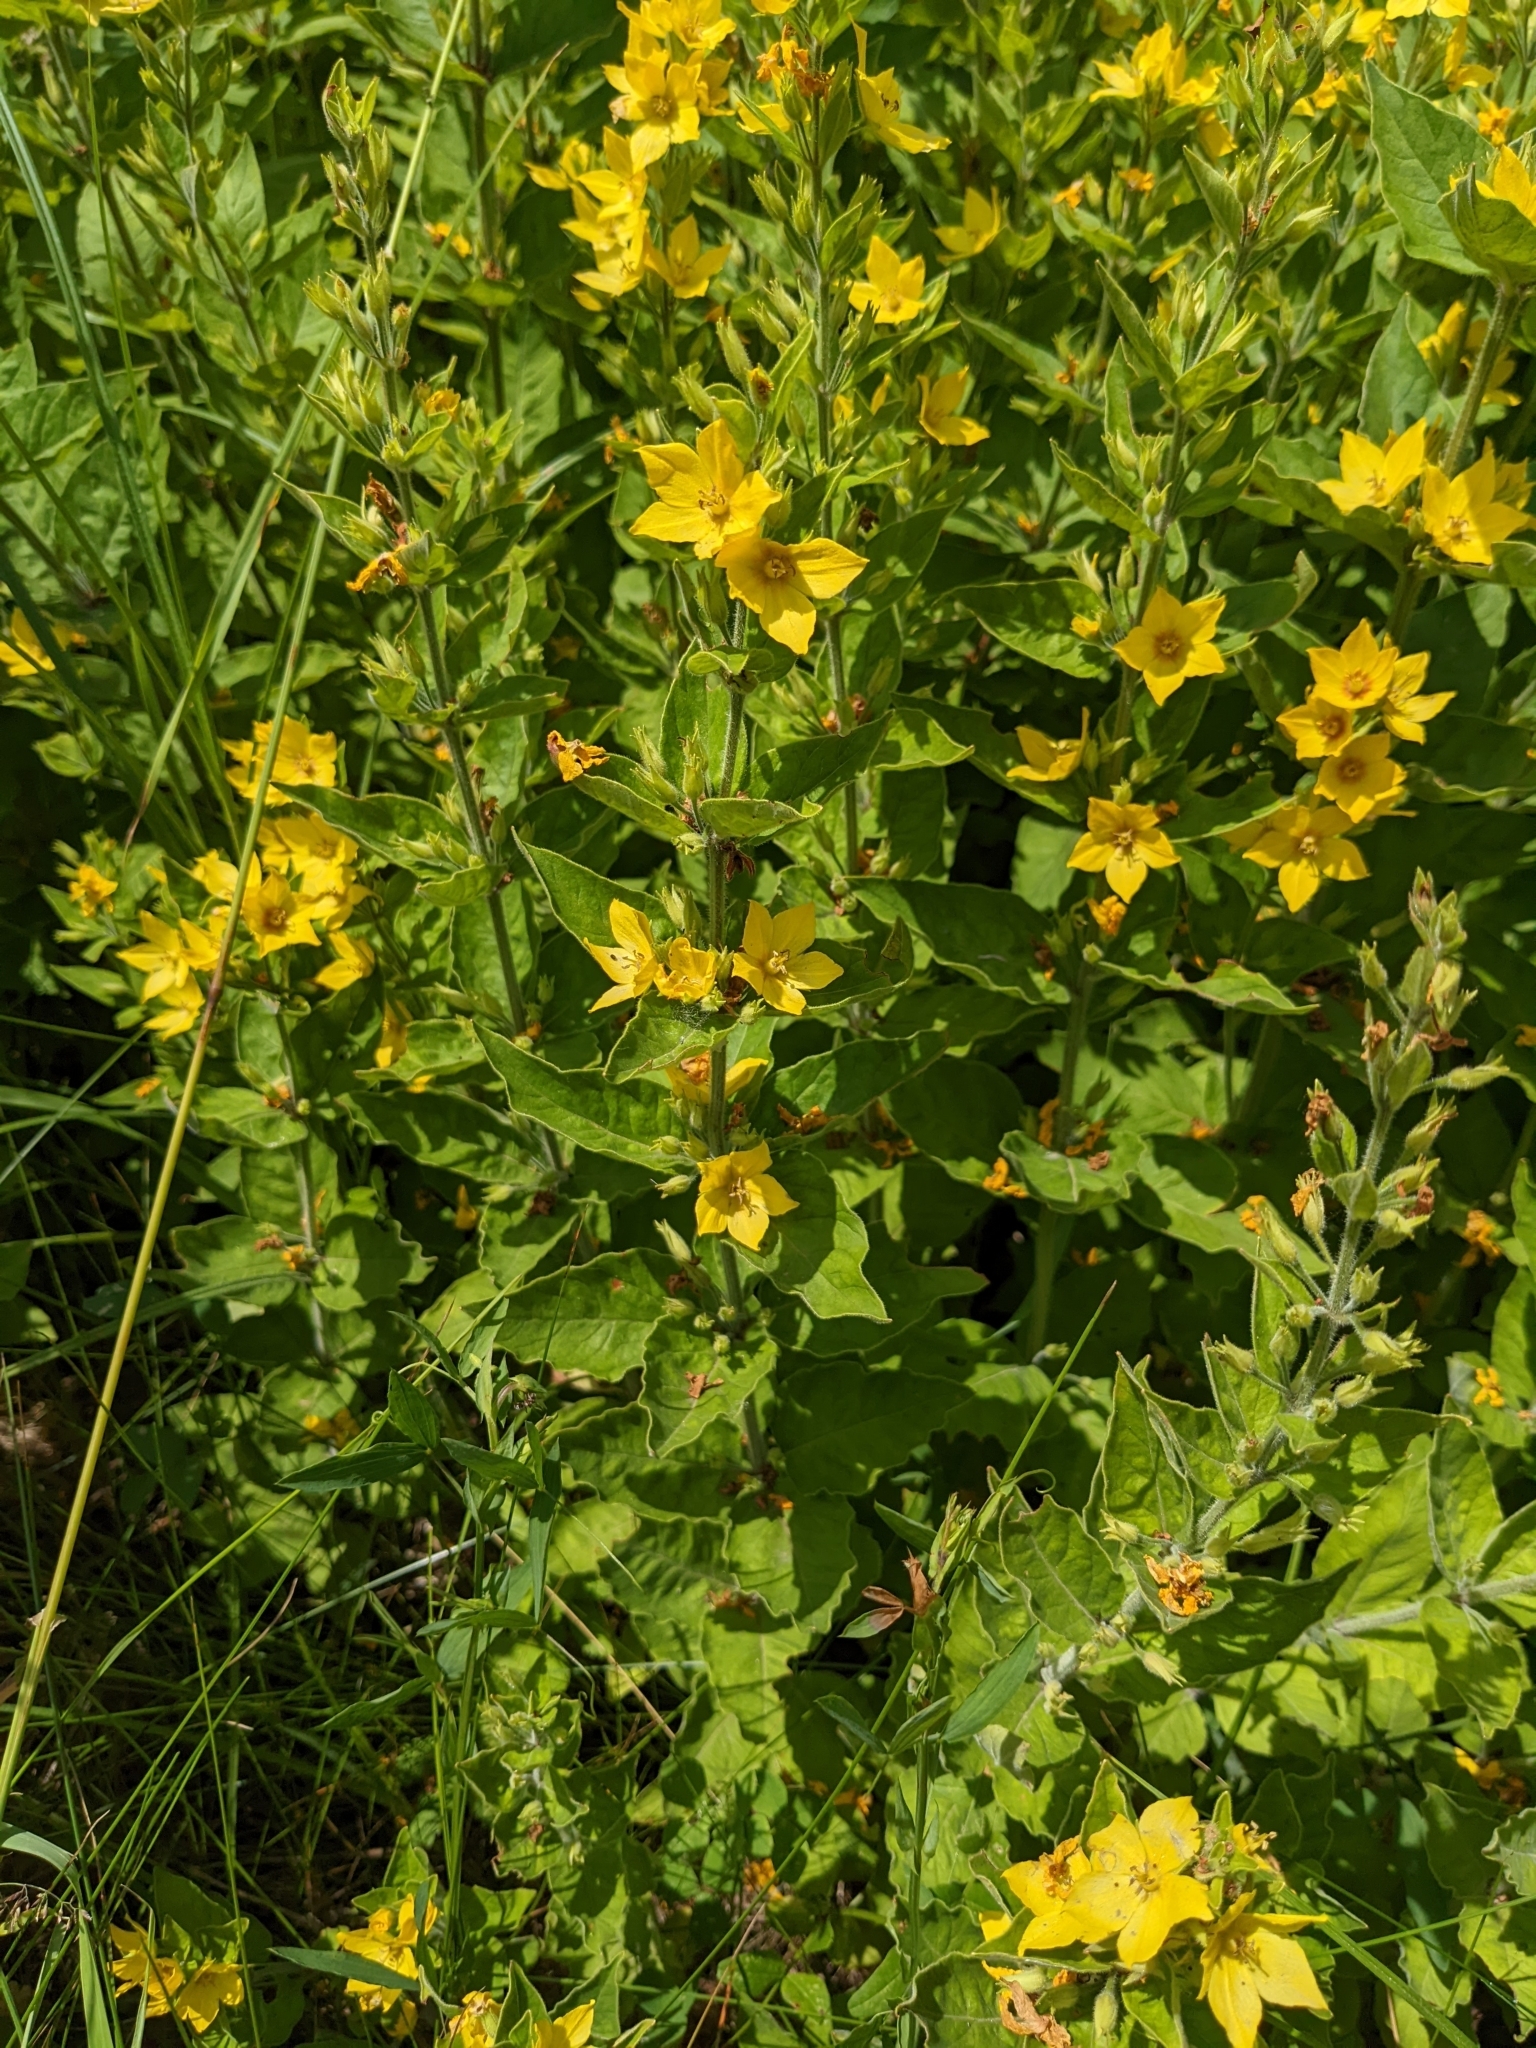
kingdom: Plantae
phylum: Tracheophyta
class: Magnoliopsida
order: Ericales
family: Primulaceae
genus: Lysimachia
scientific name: Lysimachia punctata
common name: Dotted loosestrife
